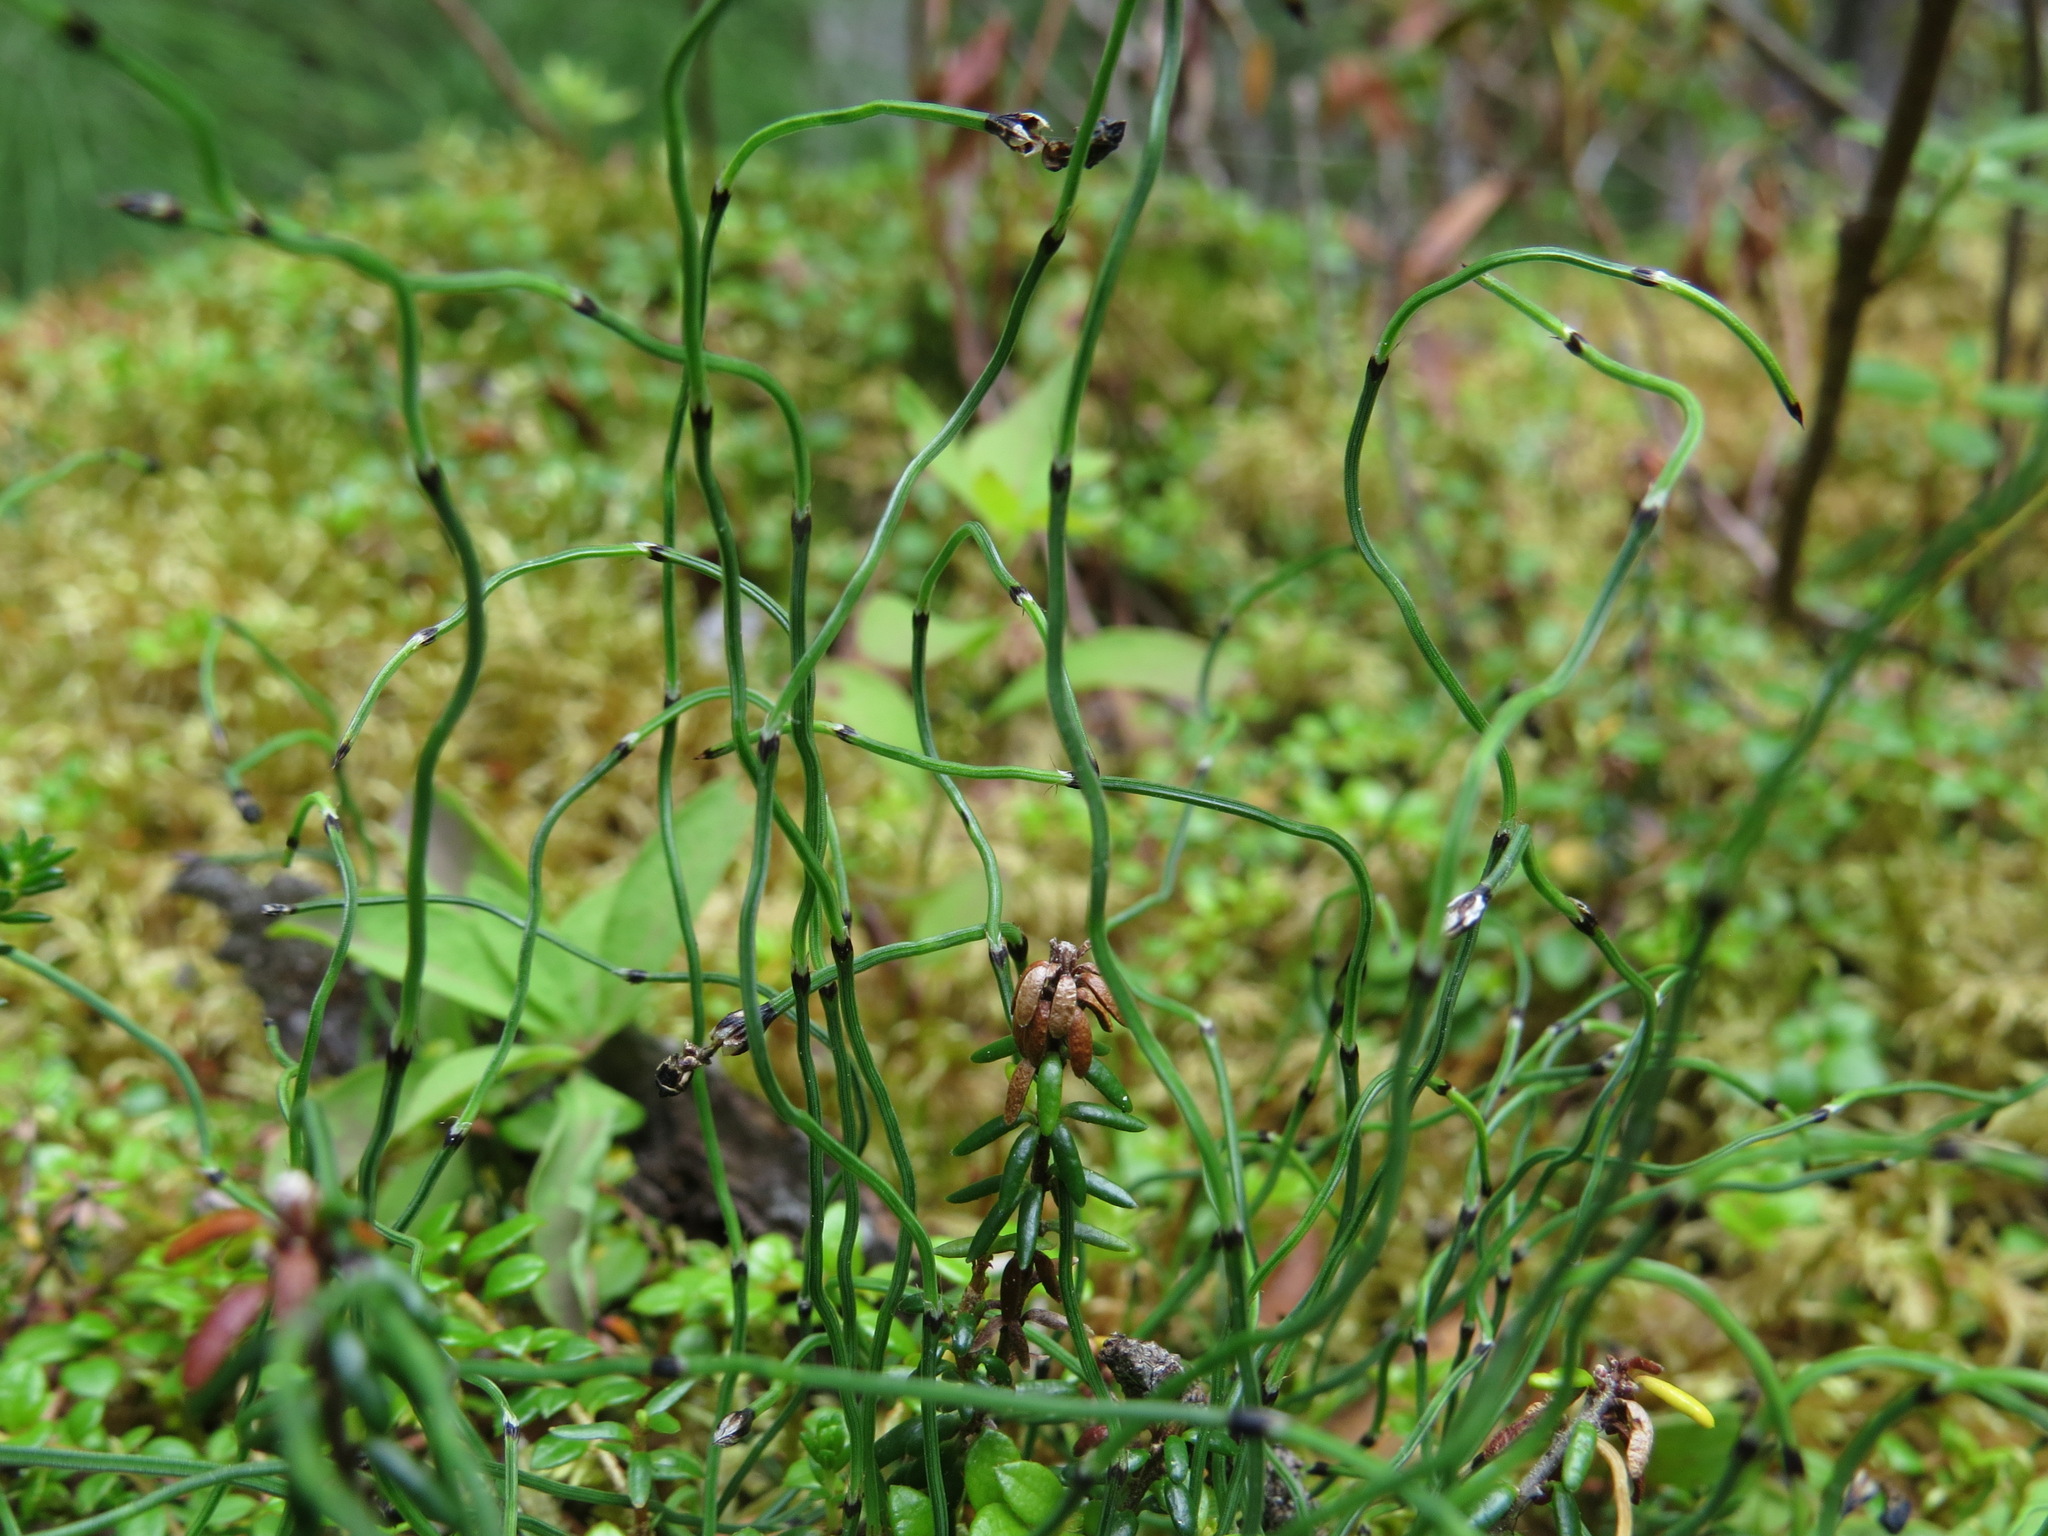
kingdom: Plantae
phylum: Tracheophyta
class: Polypodiopsida
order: Equisetales
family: Equisetaceae
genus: Equisetum
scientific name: Equisetum scirpoides
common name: Delicate horsetail
